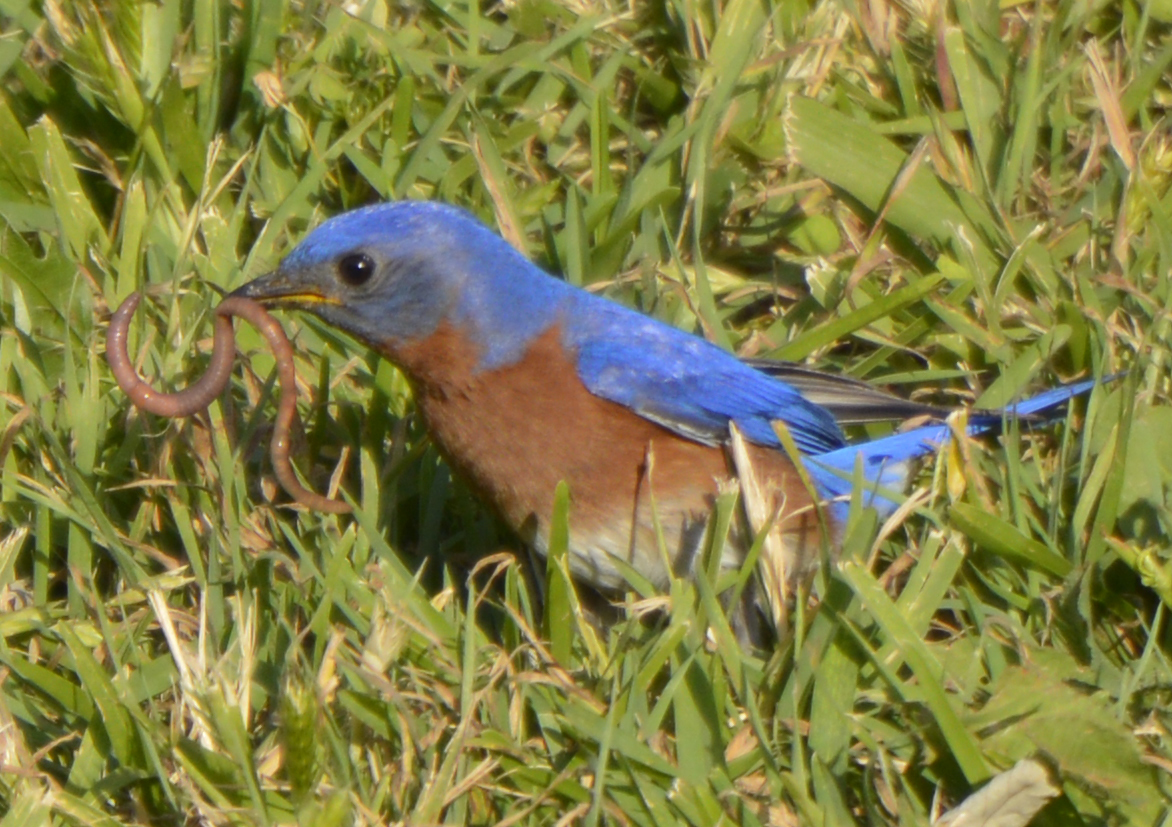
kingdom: Animalia
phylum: Chordata
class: Aves
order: Passeriformes
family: Turdidae
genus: Sialia
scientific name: Sialia sialis
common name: Eastern bluebird
